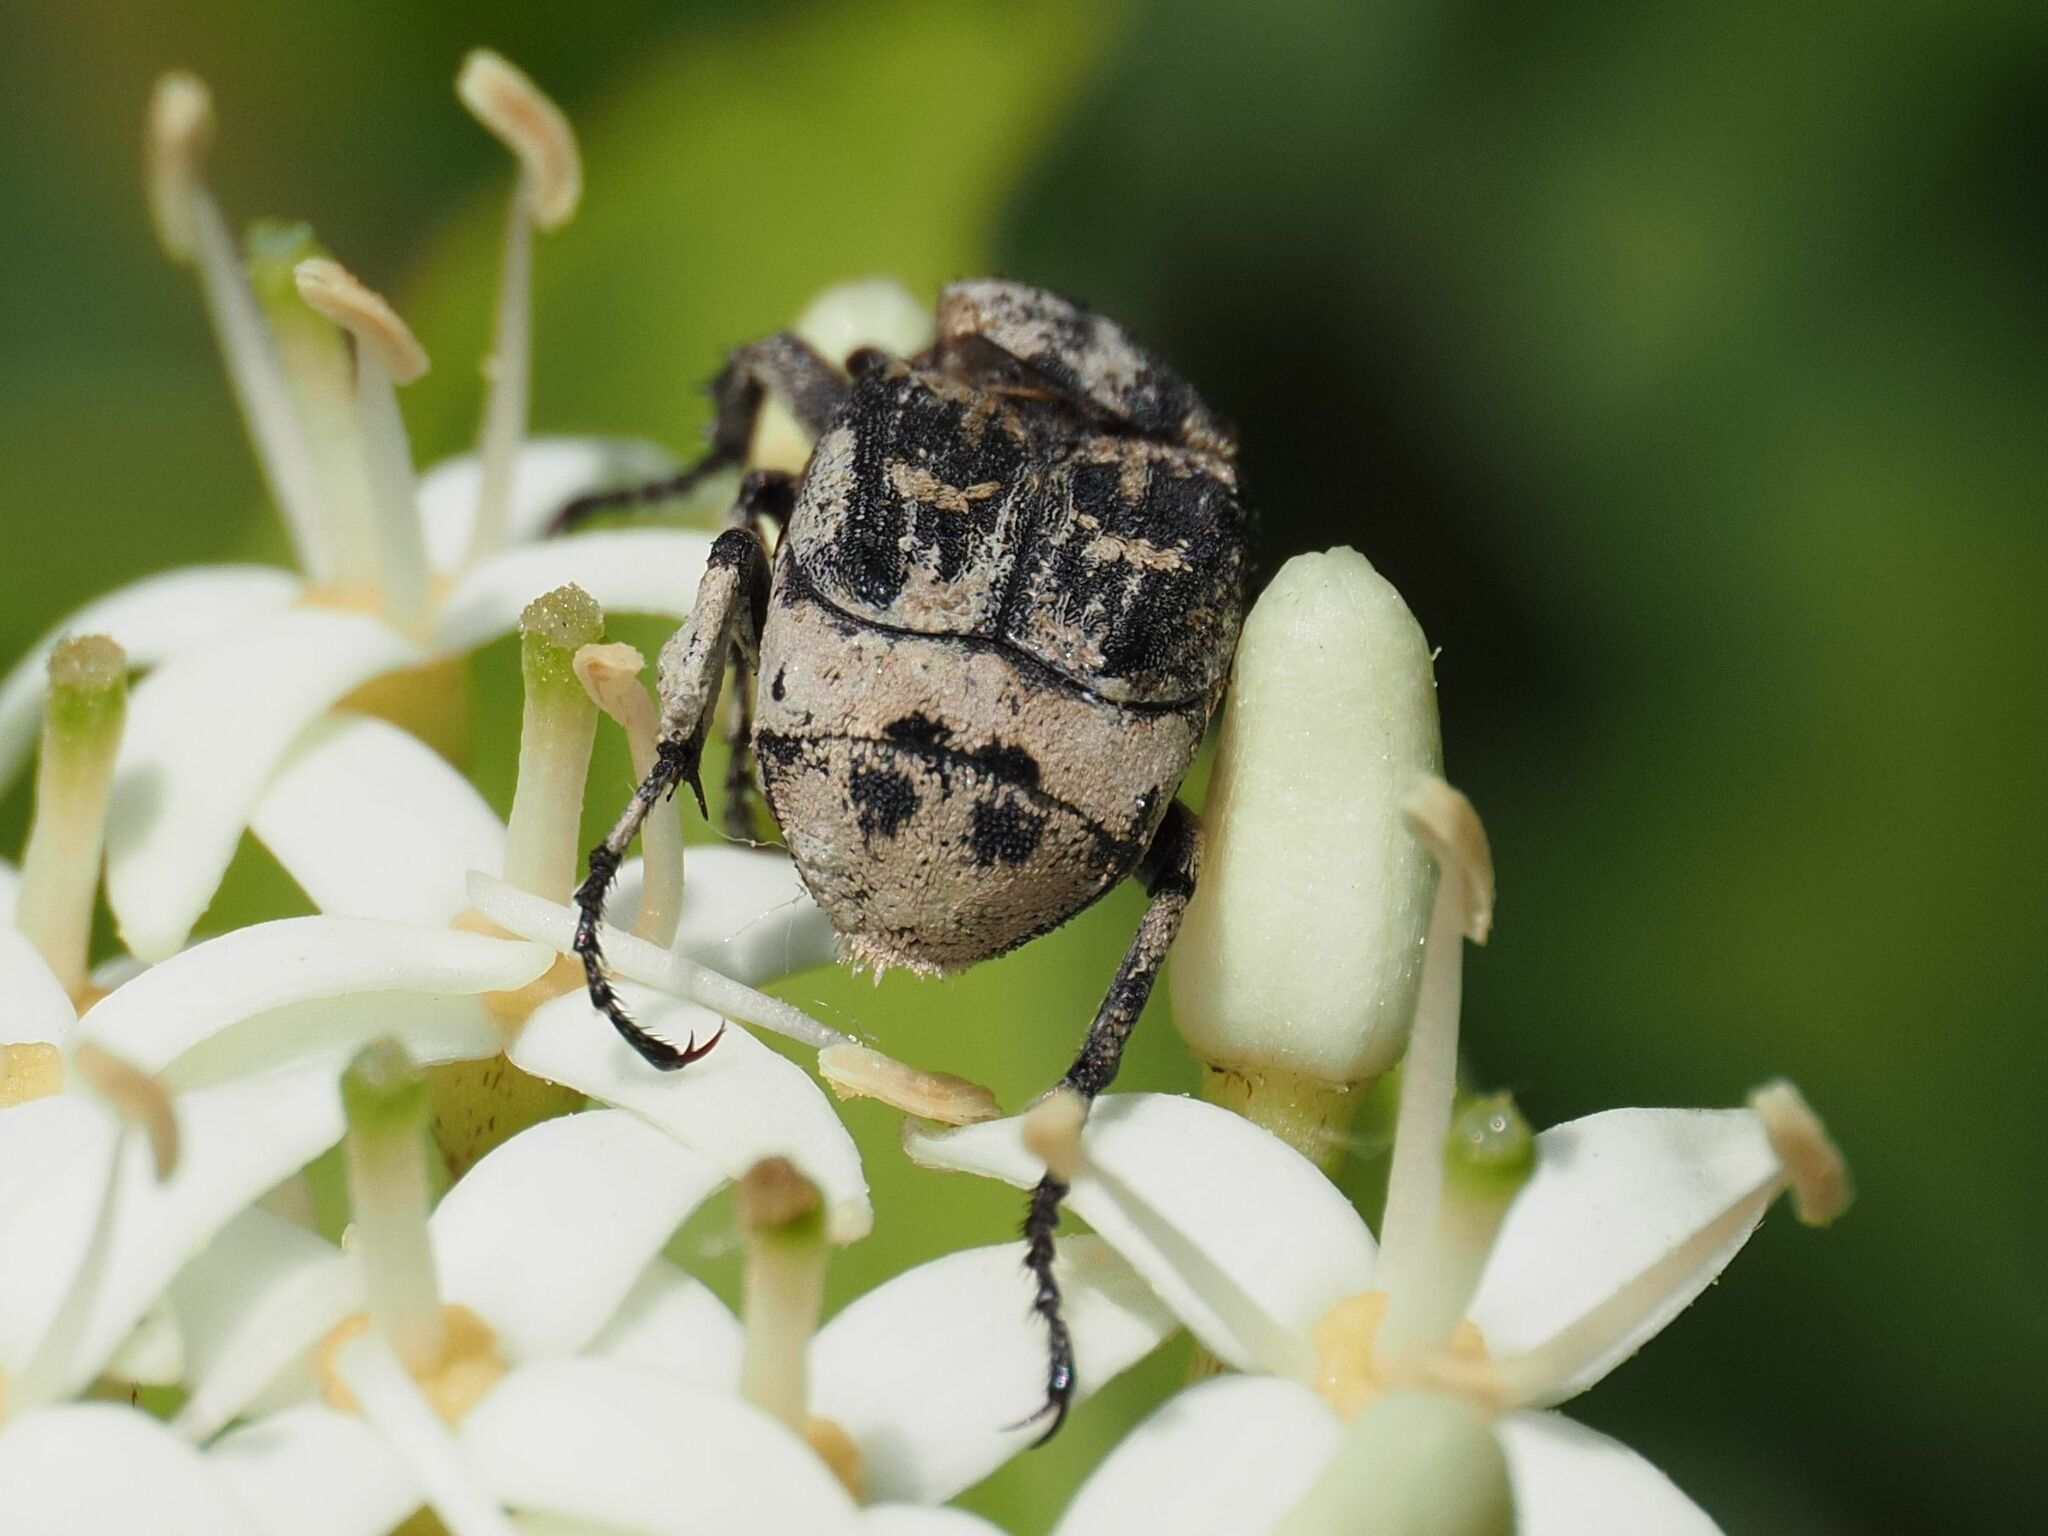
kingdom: Animalia
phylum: Arthropoda
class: Insecta
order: Coleoptera
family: Scarabaeidae
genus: Valgus
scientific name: Valgus hemipterus
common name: Bug flower chafer
